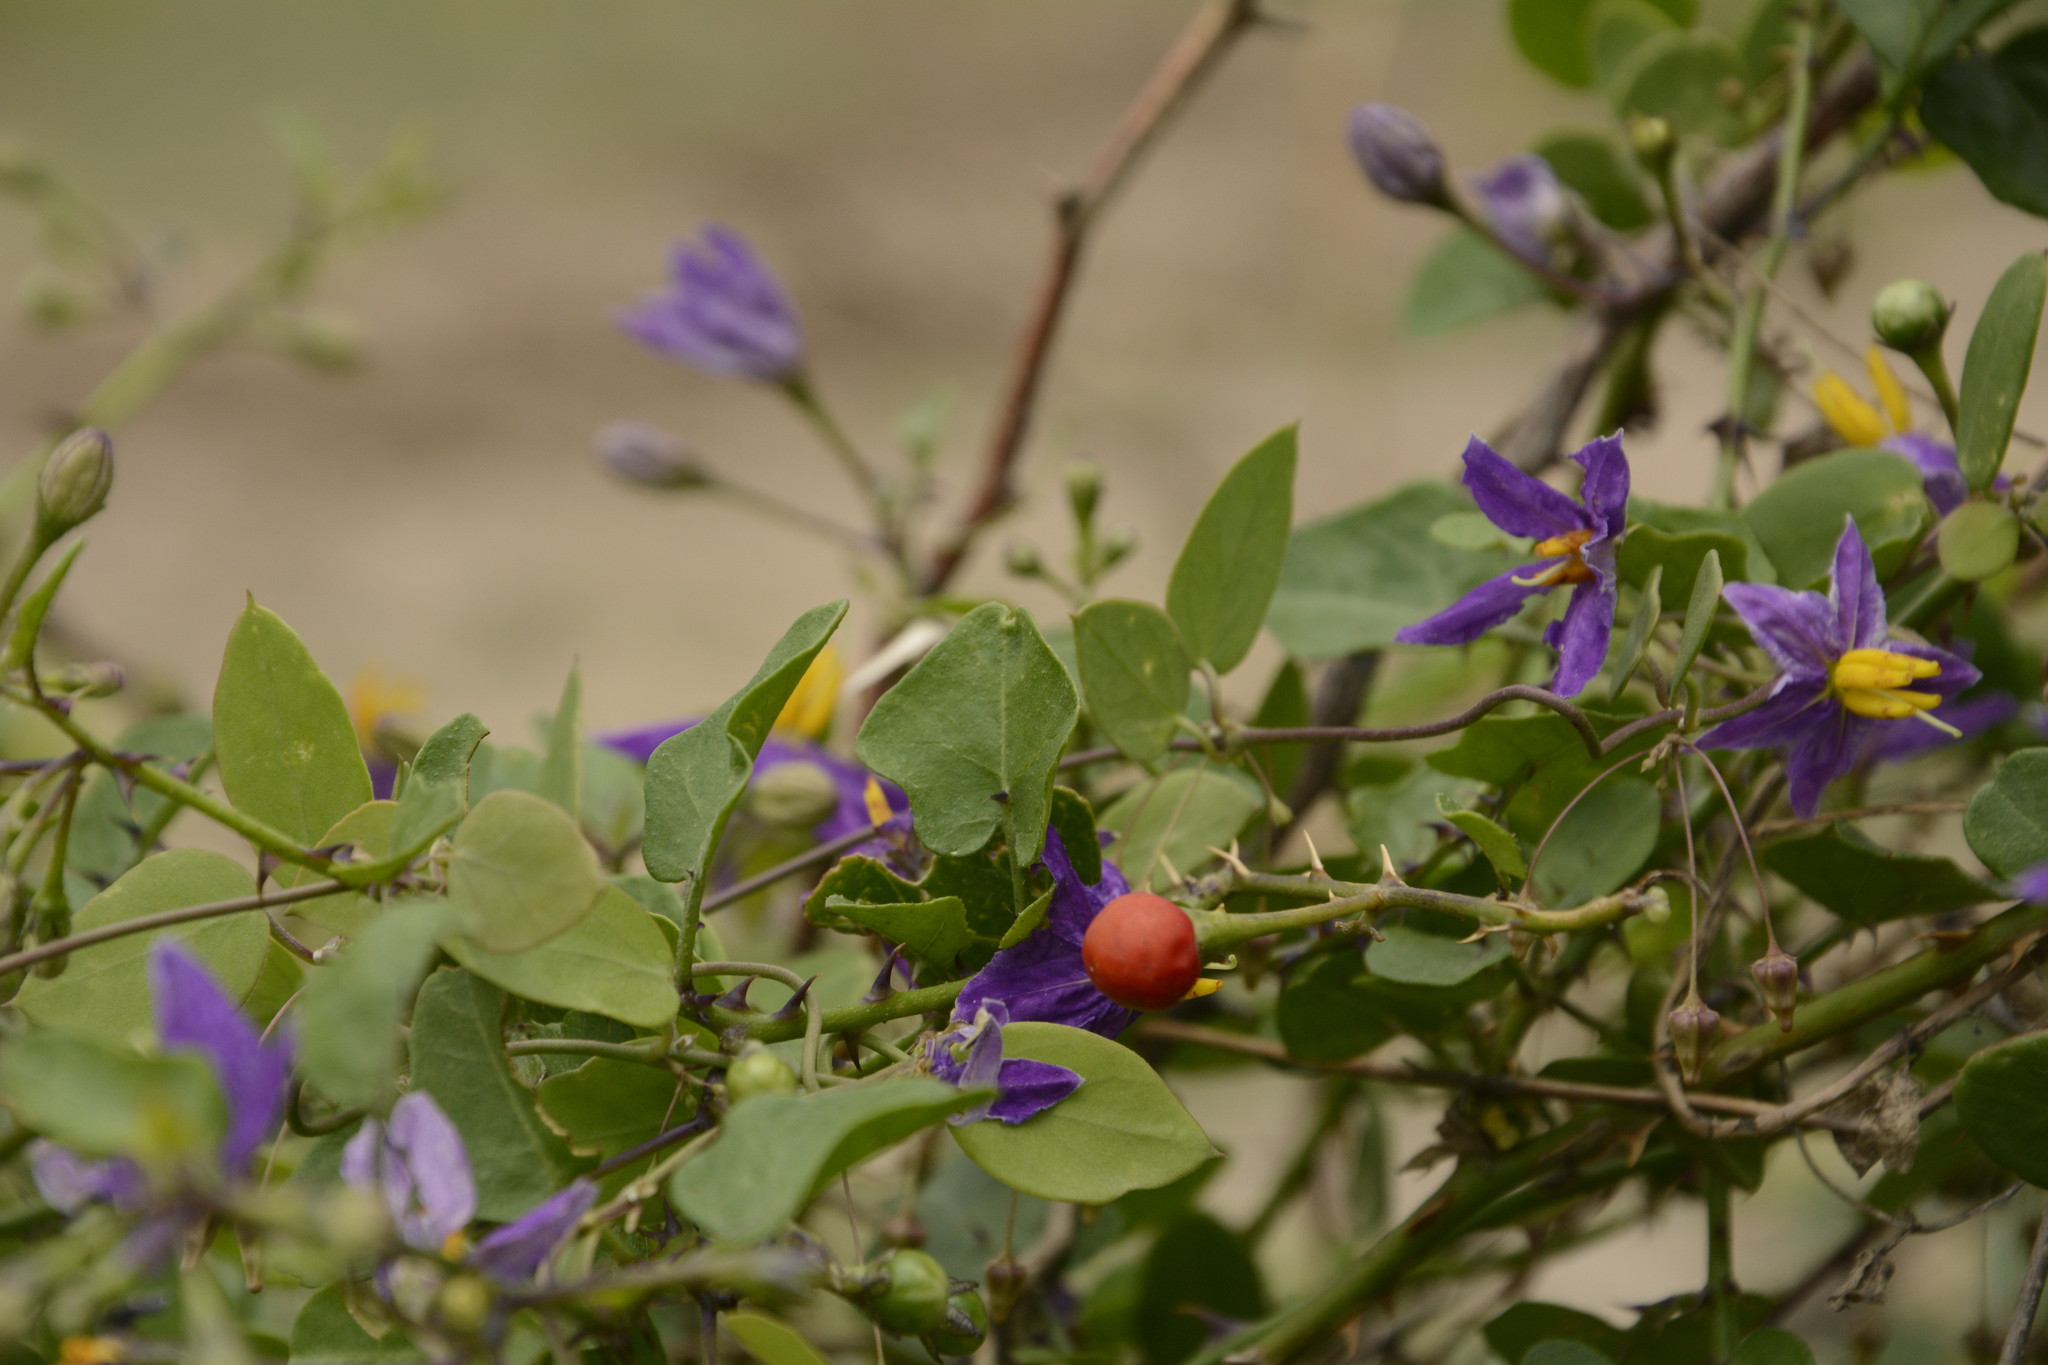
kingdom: Plantae
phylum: Tracheophyta
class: Magnoliopsida
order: Solanales
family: Solanaceae
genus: Solanum
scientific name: Solanum trilobatum
